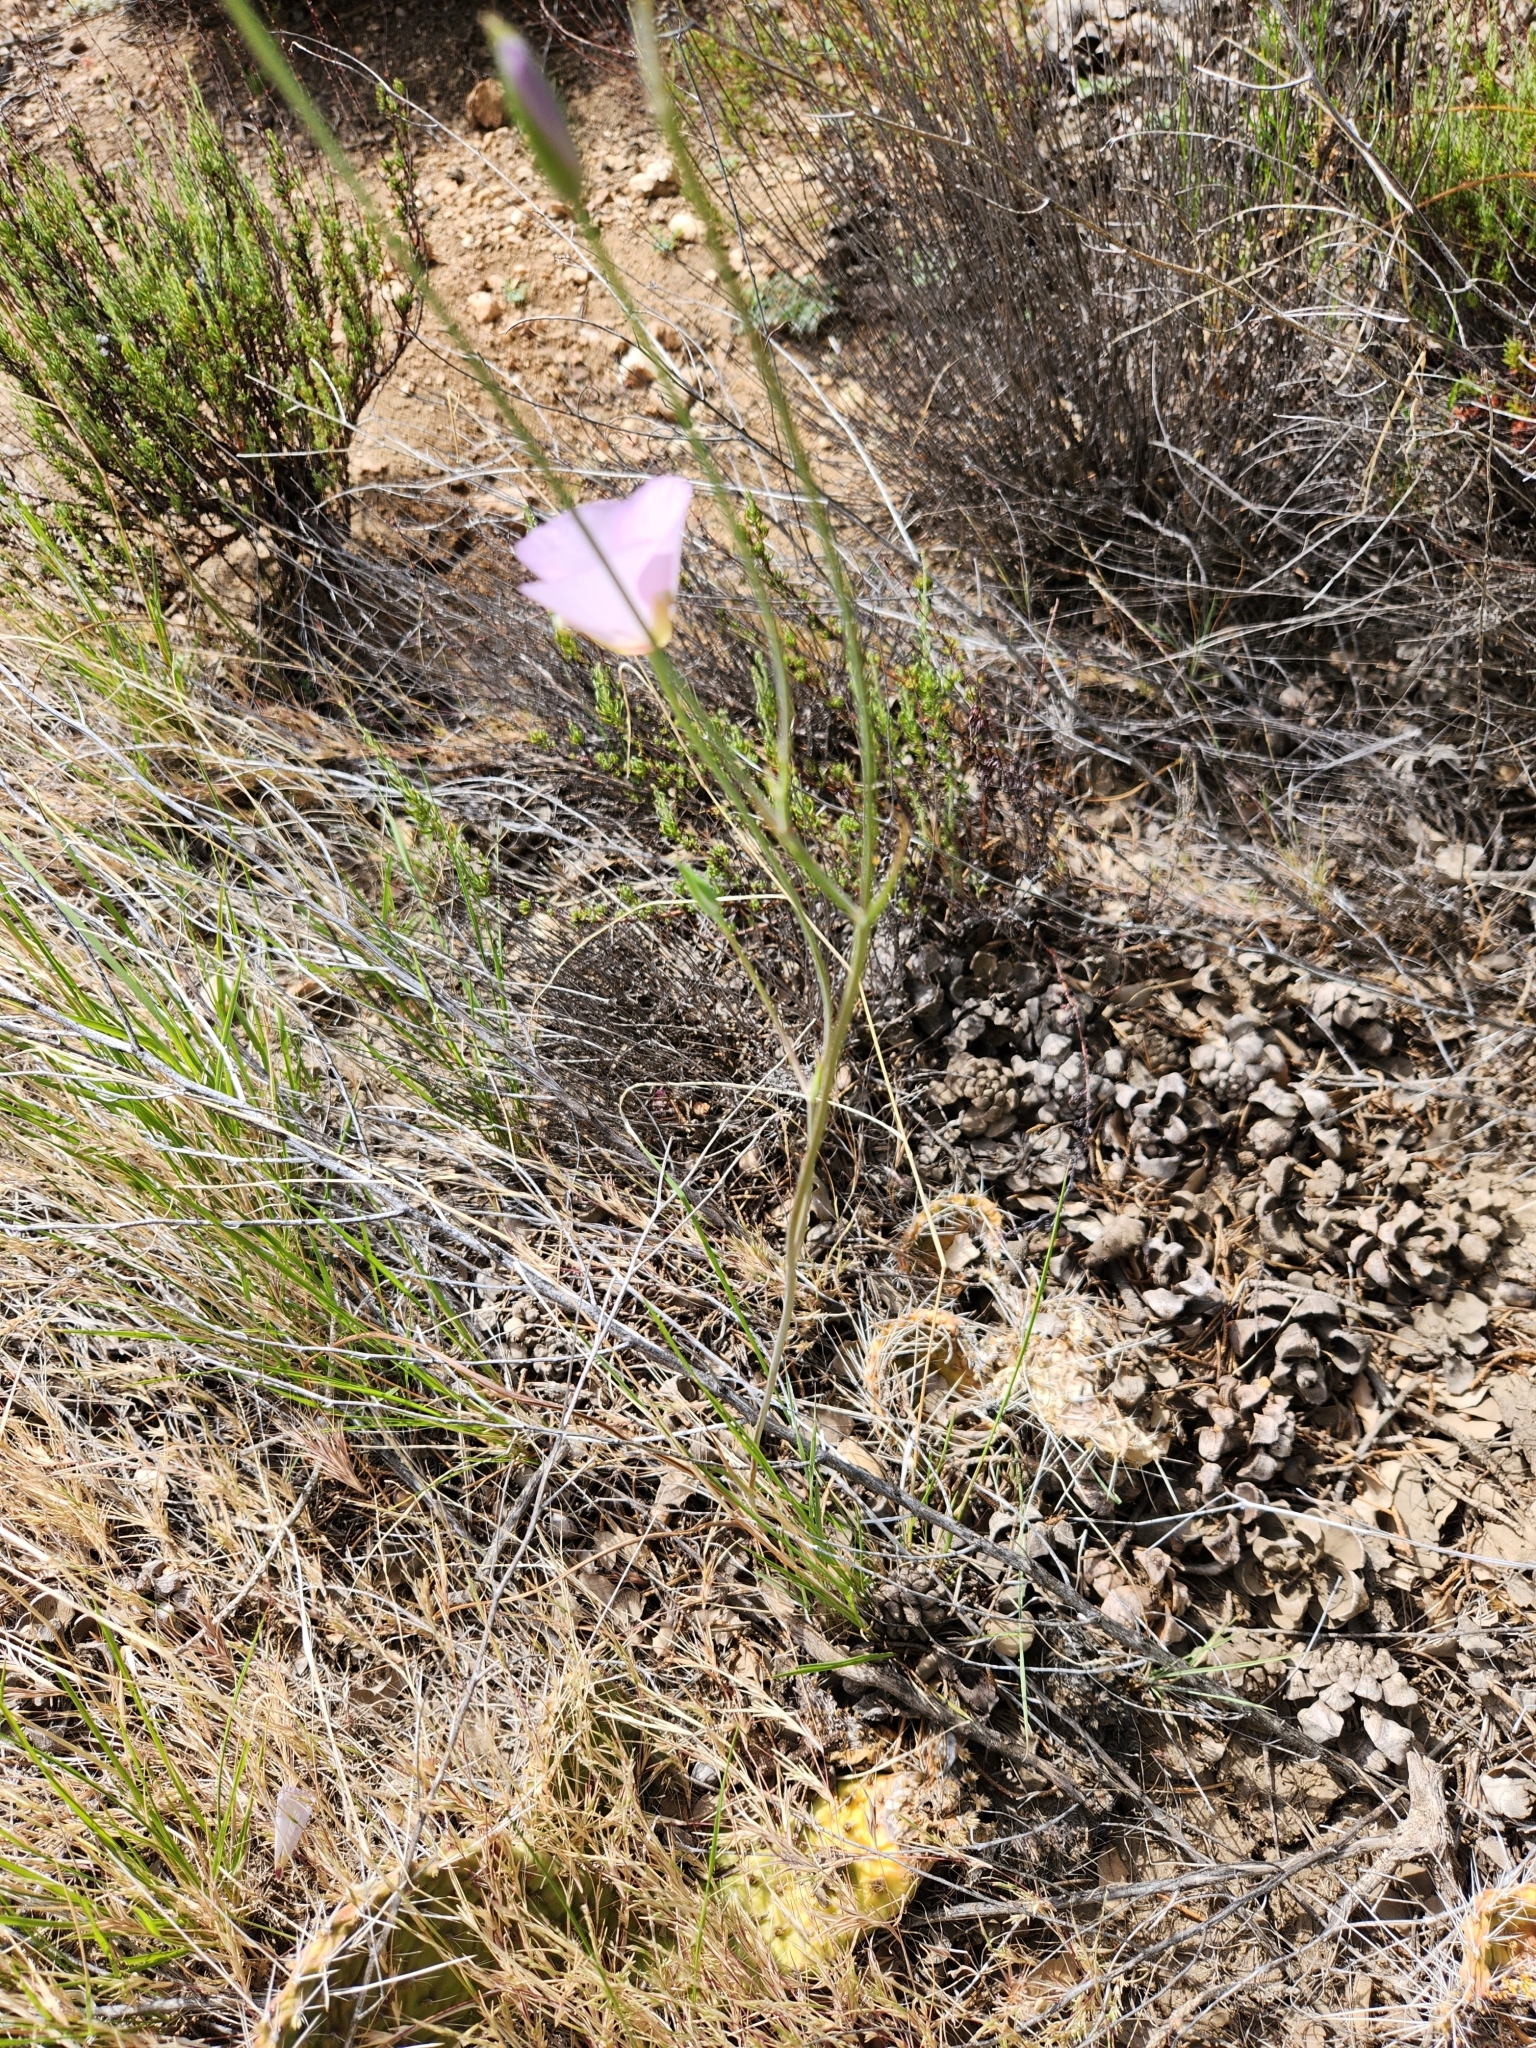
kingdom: Plantae
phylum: Tracheophyta
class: Liliopsida
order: Liliales
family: Liliaceae
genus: Calochortus
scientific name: Calochortus palmeri
